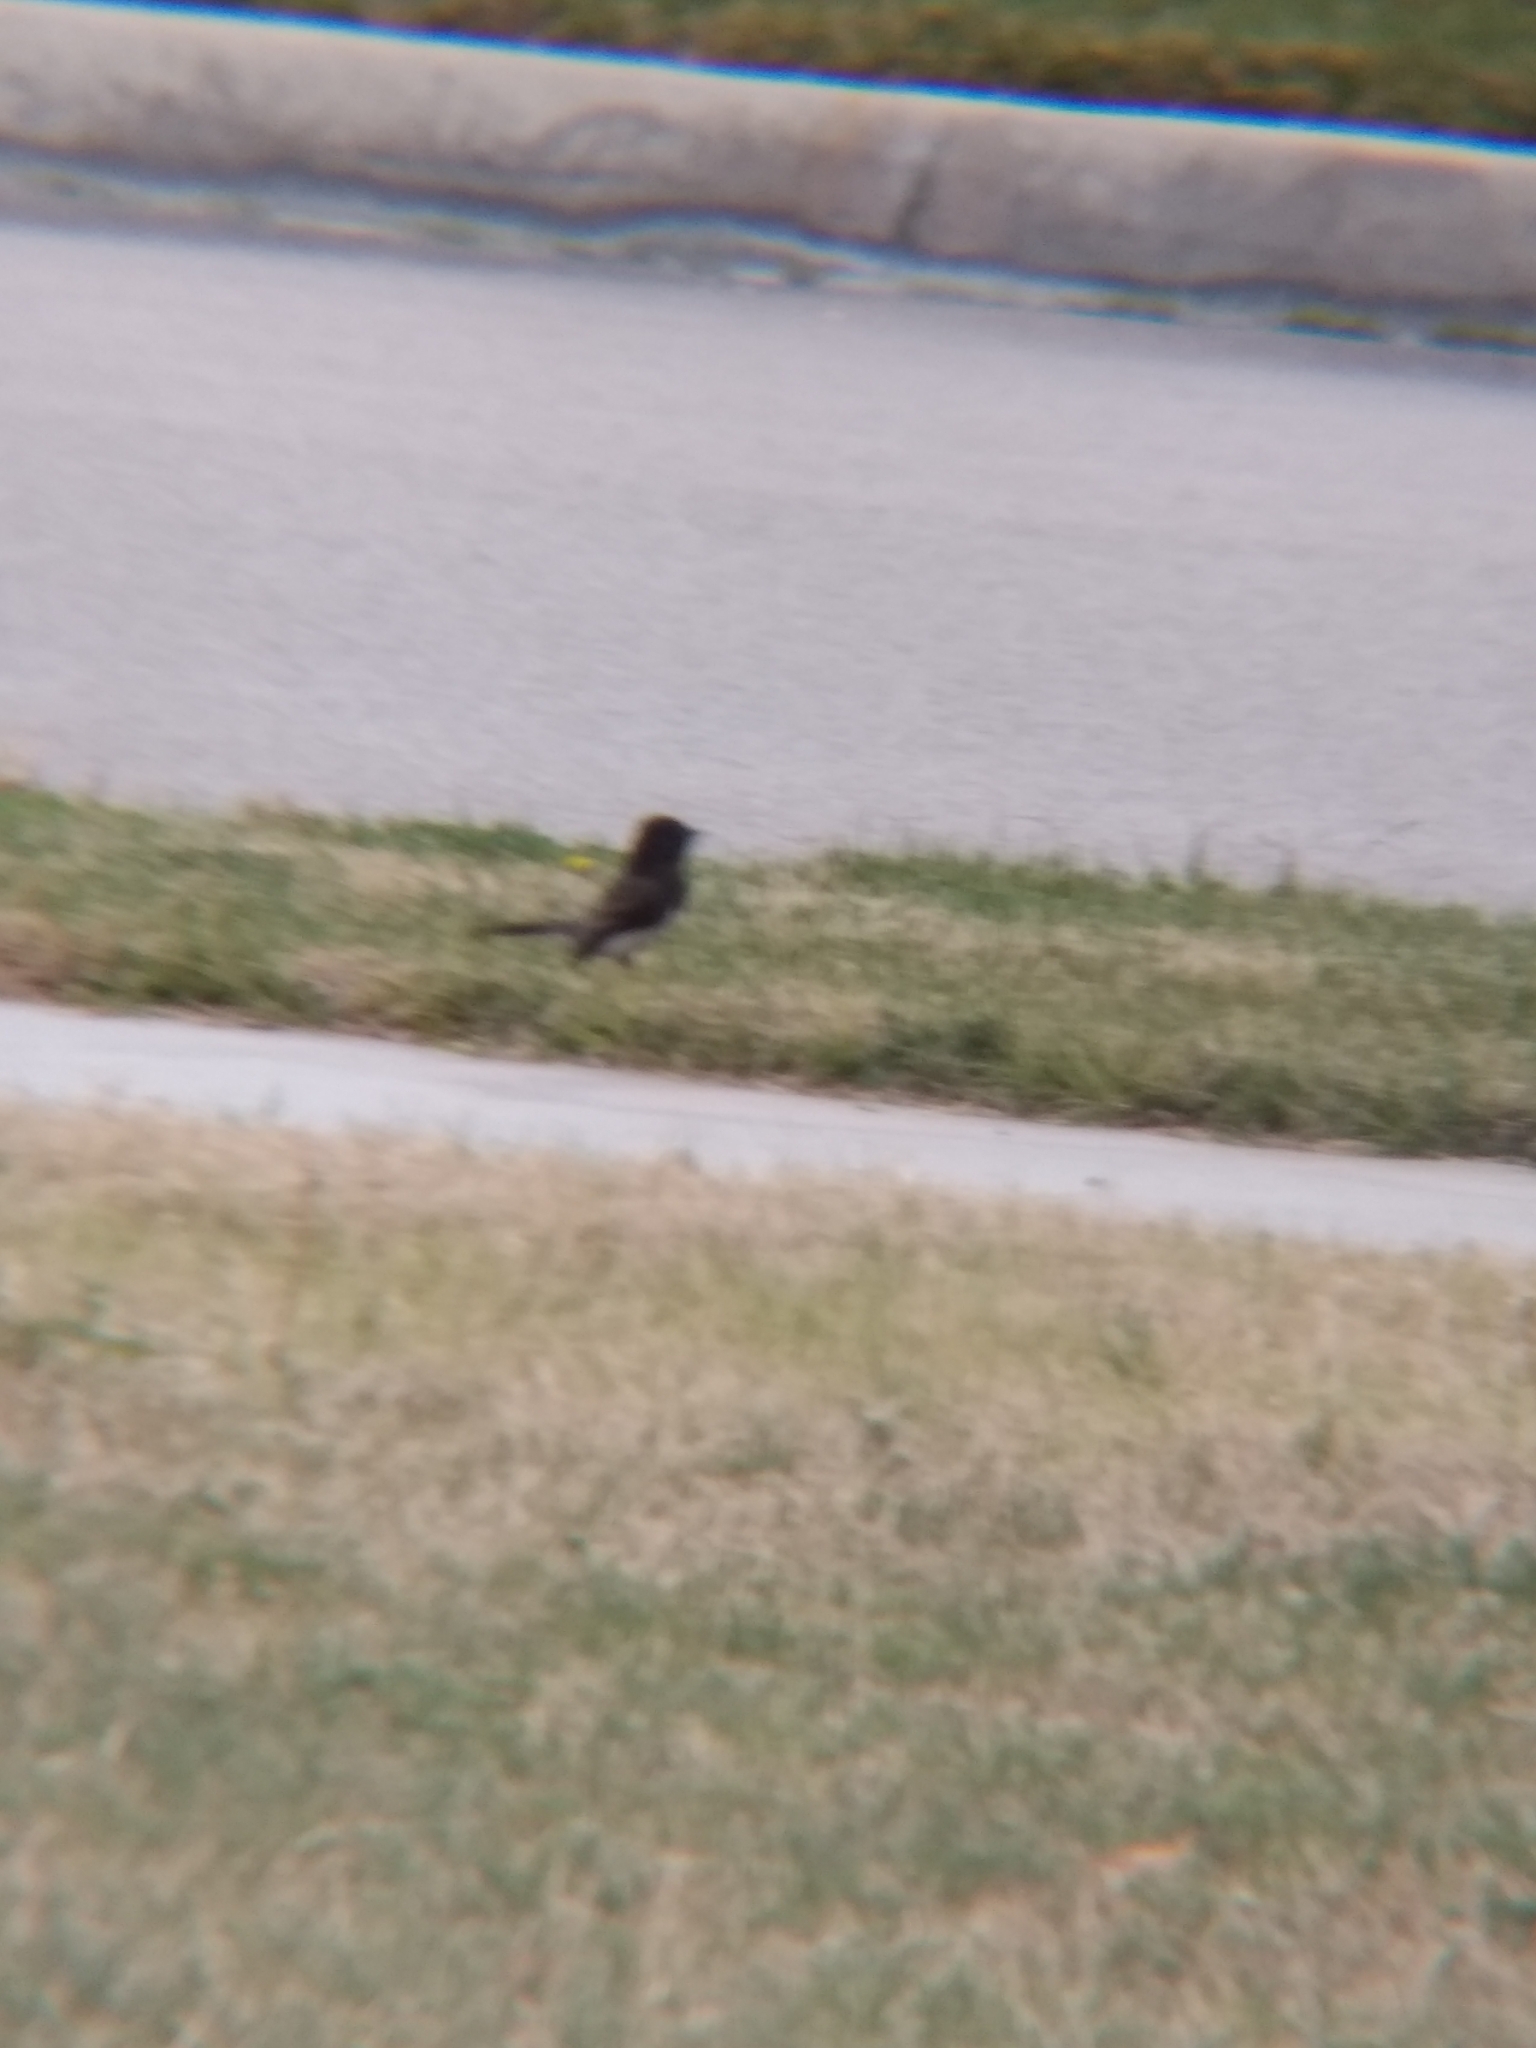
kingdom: Animalia
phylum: Chordata
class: Aves
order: Passeriformes
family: Tyrannidae
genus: Sayornis
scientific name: Sayornis nigricans
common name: Black phoebe
